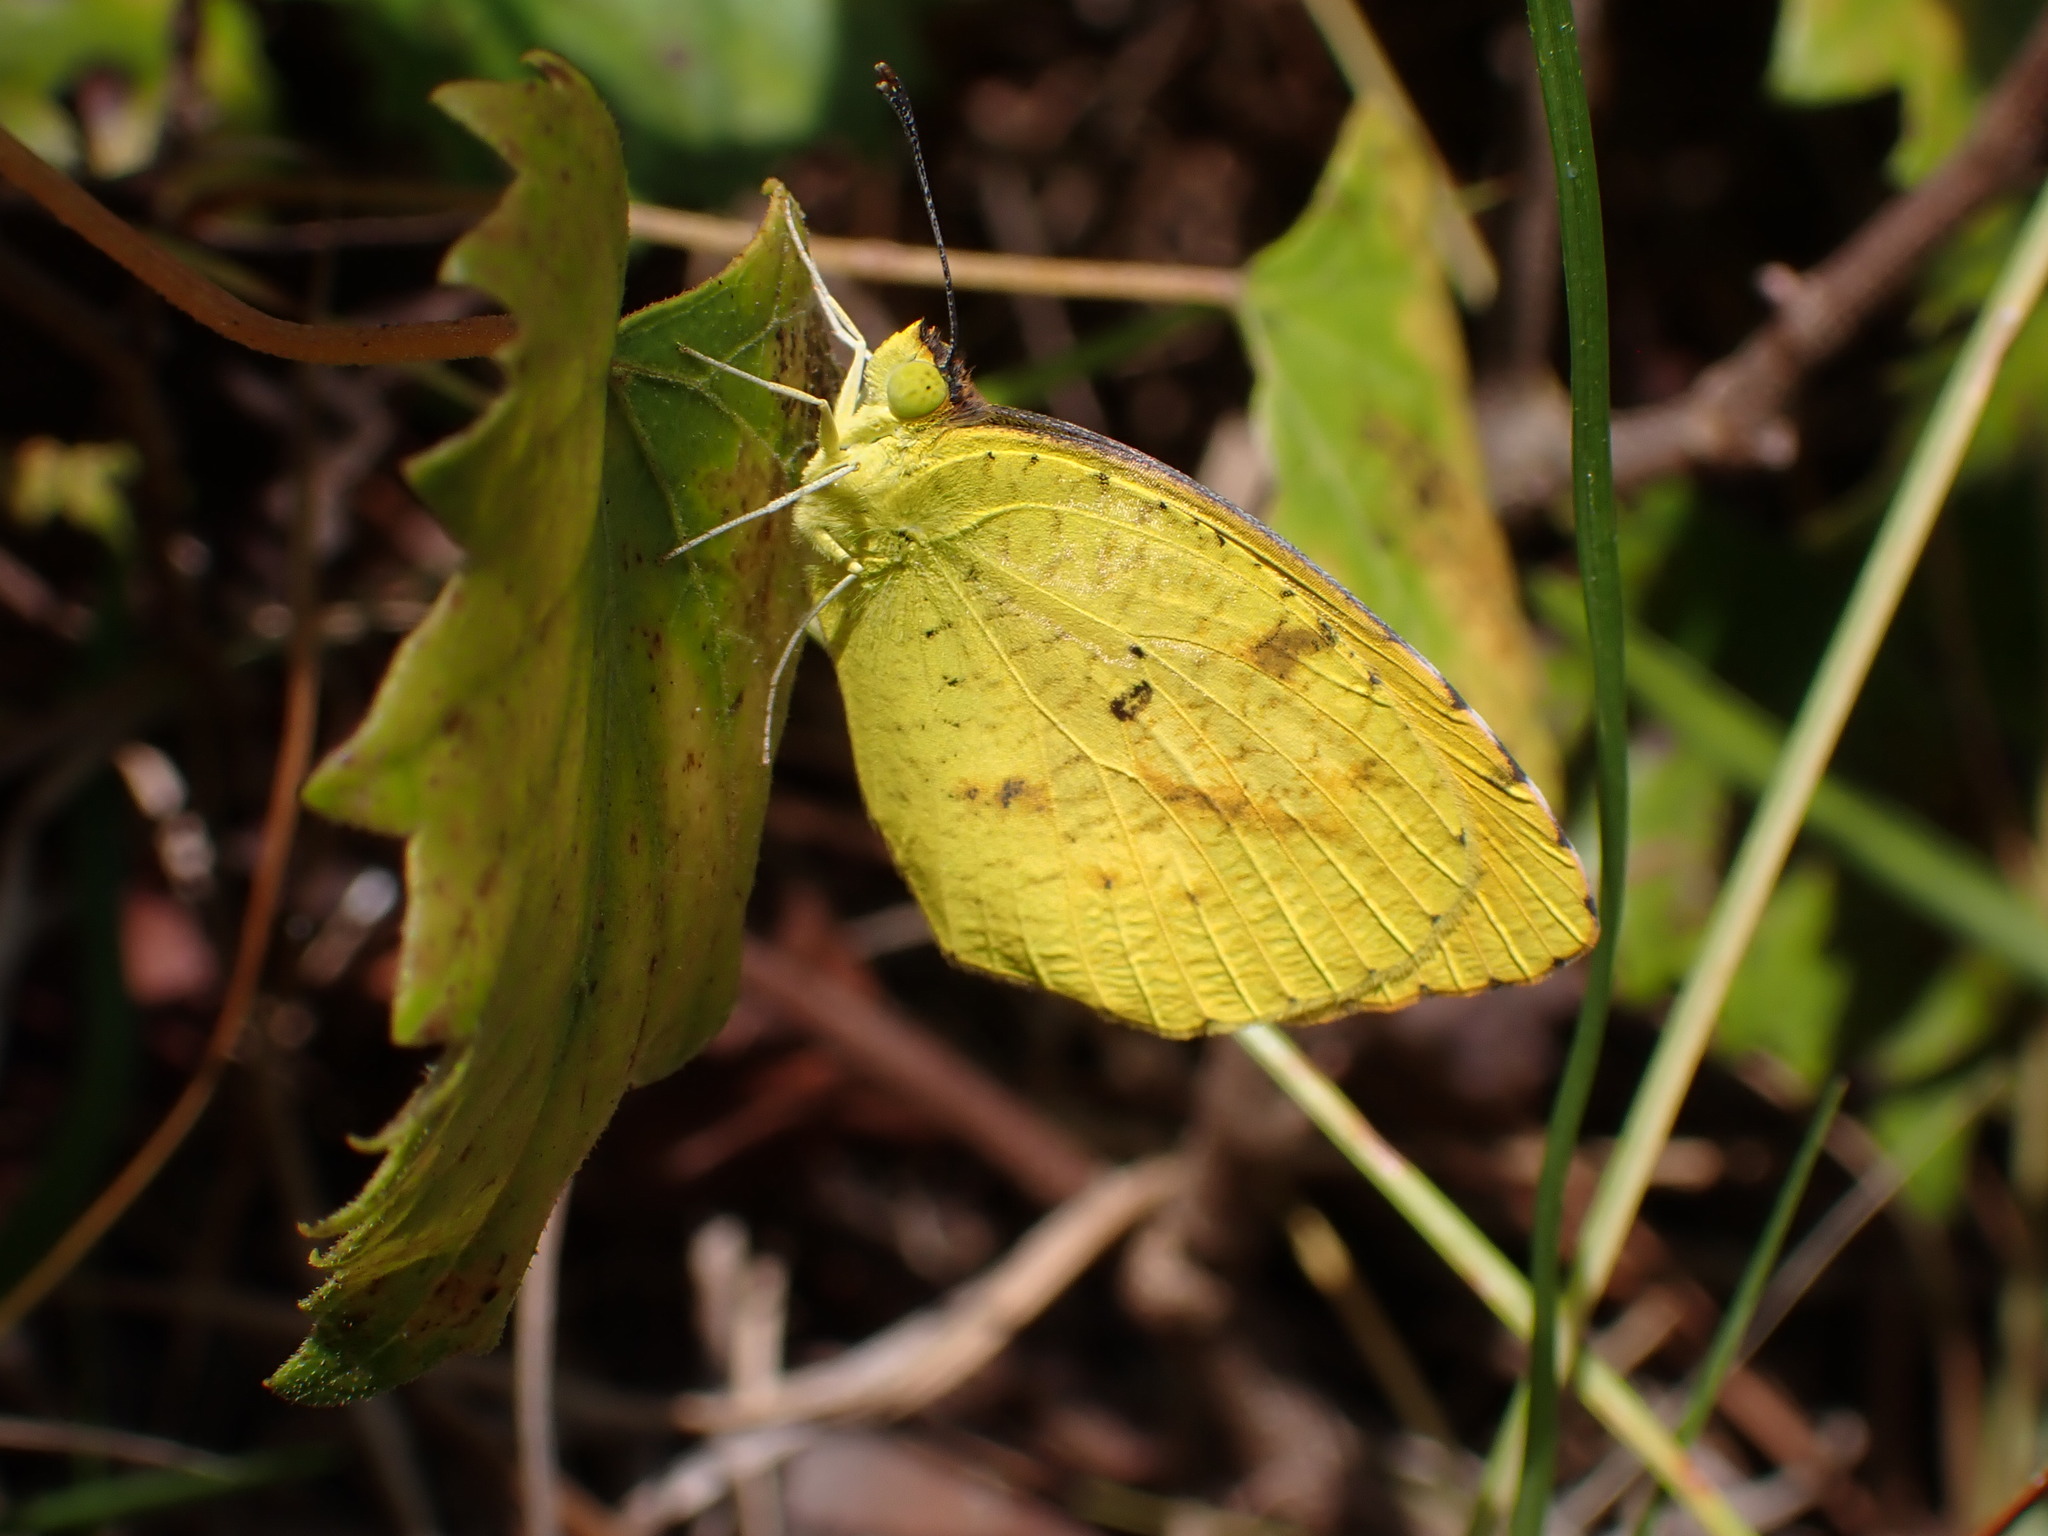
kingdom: Animalia
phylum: Arthropoda
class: Insecta
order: Lepidoptera
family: Pieridae
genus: Abaeis
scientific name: Abaeis nicippe
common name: Sleepy orange
